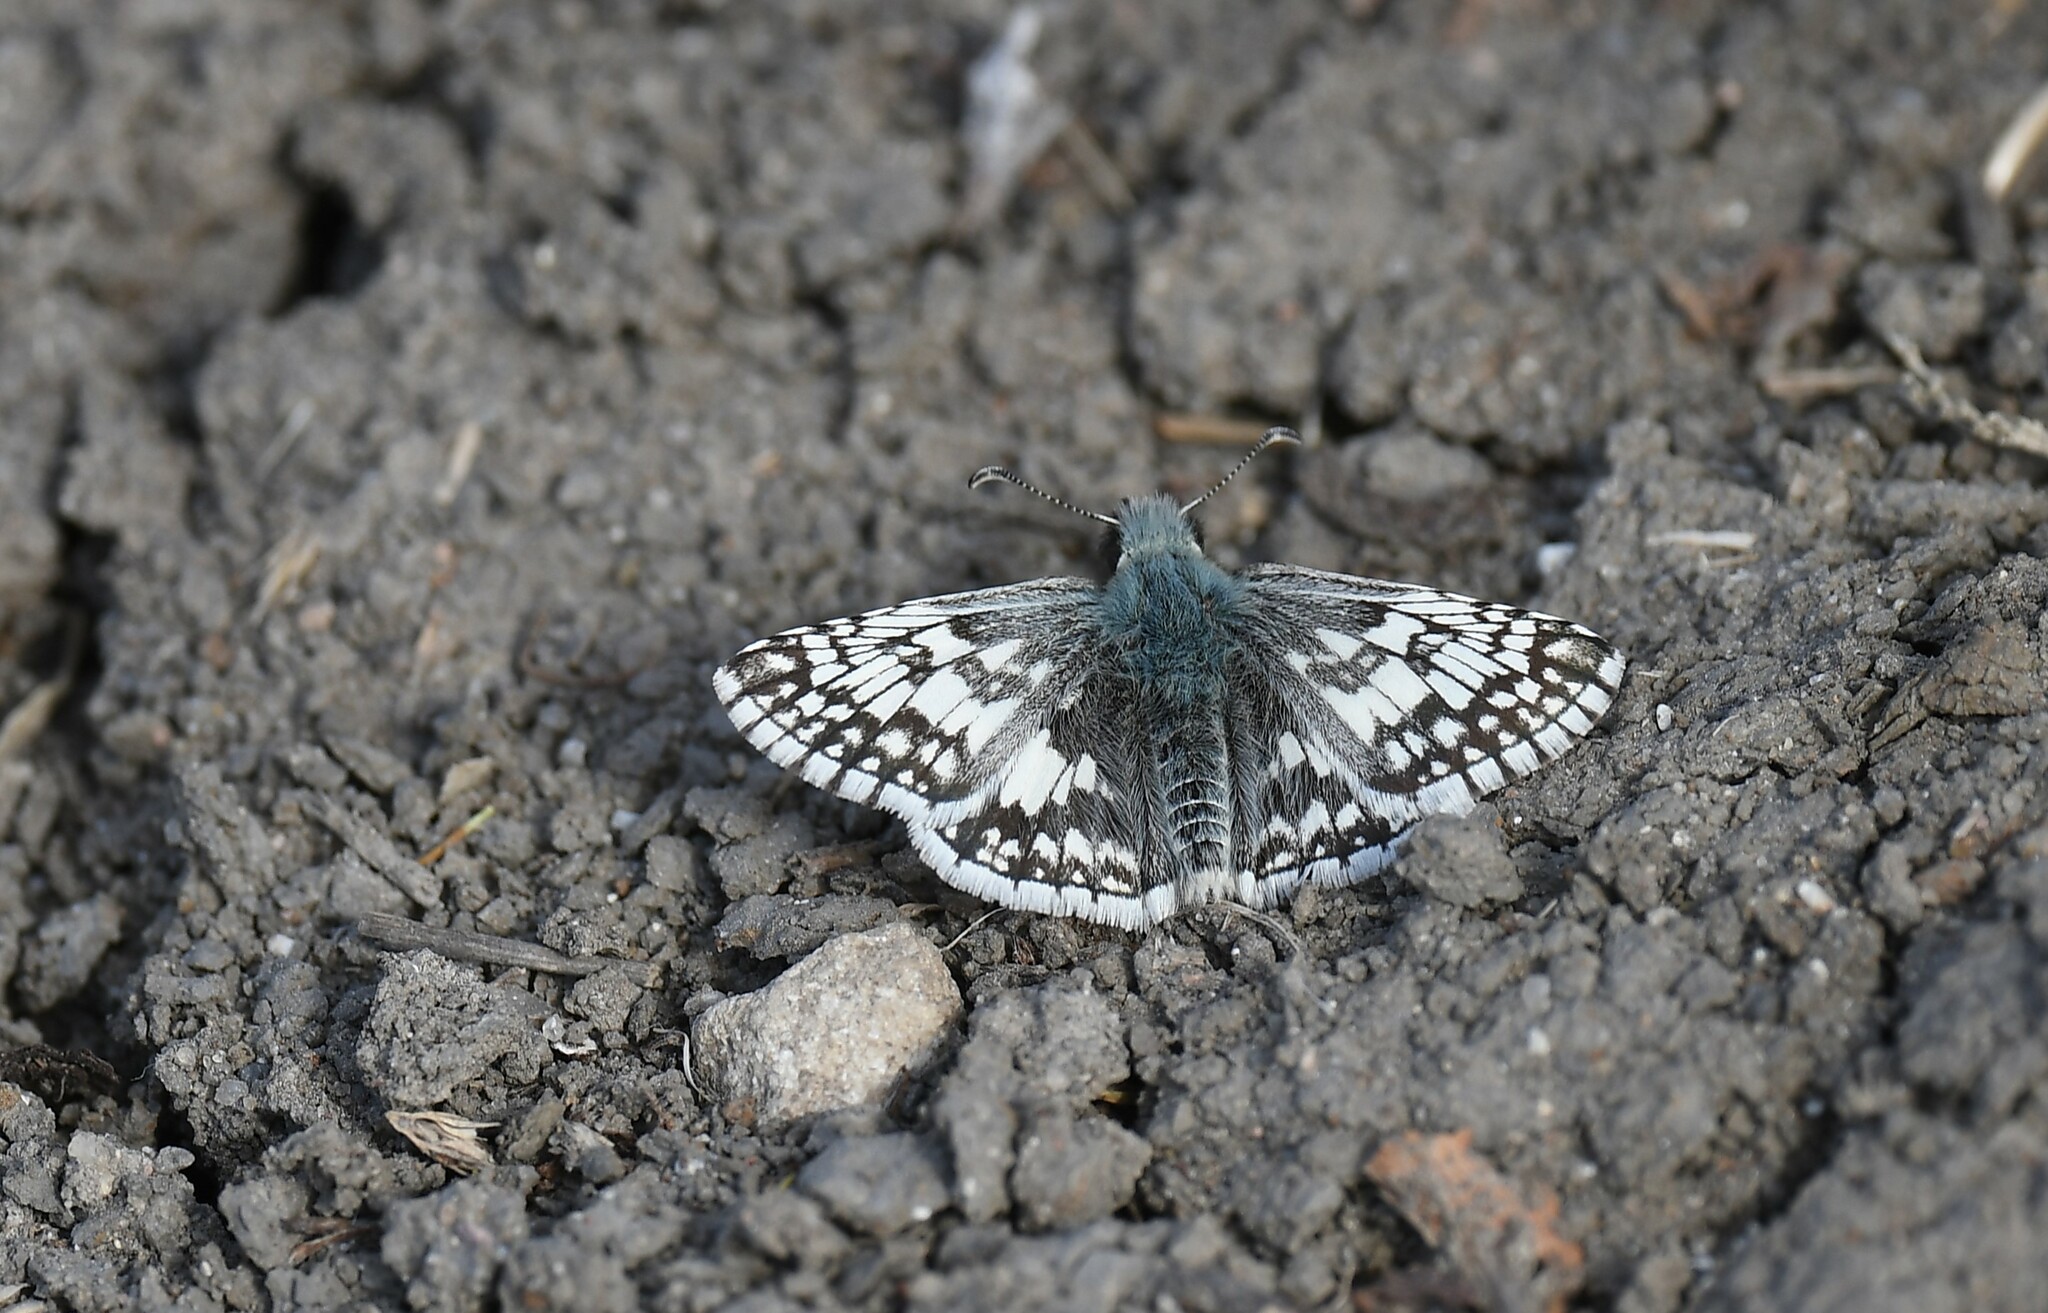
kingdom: Animalia
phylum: Arthropoda
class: Insecta
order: Lepidoptera
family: Hesperiidae
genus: Burnsius
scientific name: Burnsius communis
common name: Common checkered-skipper
